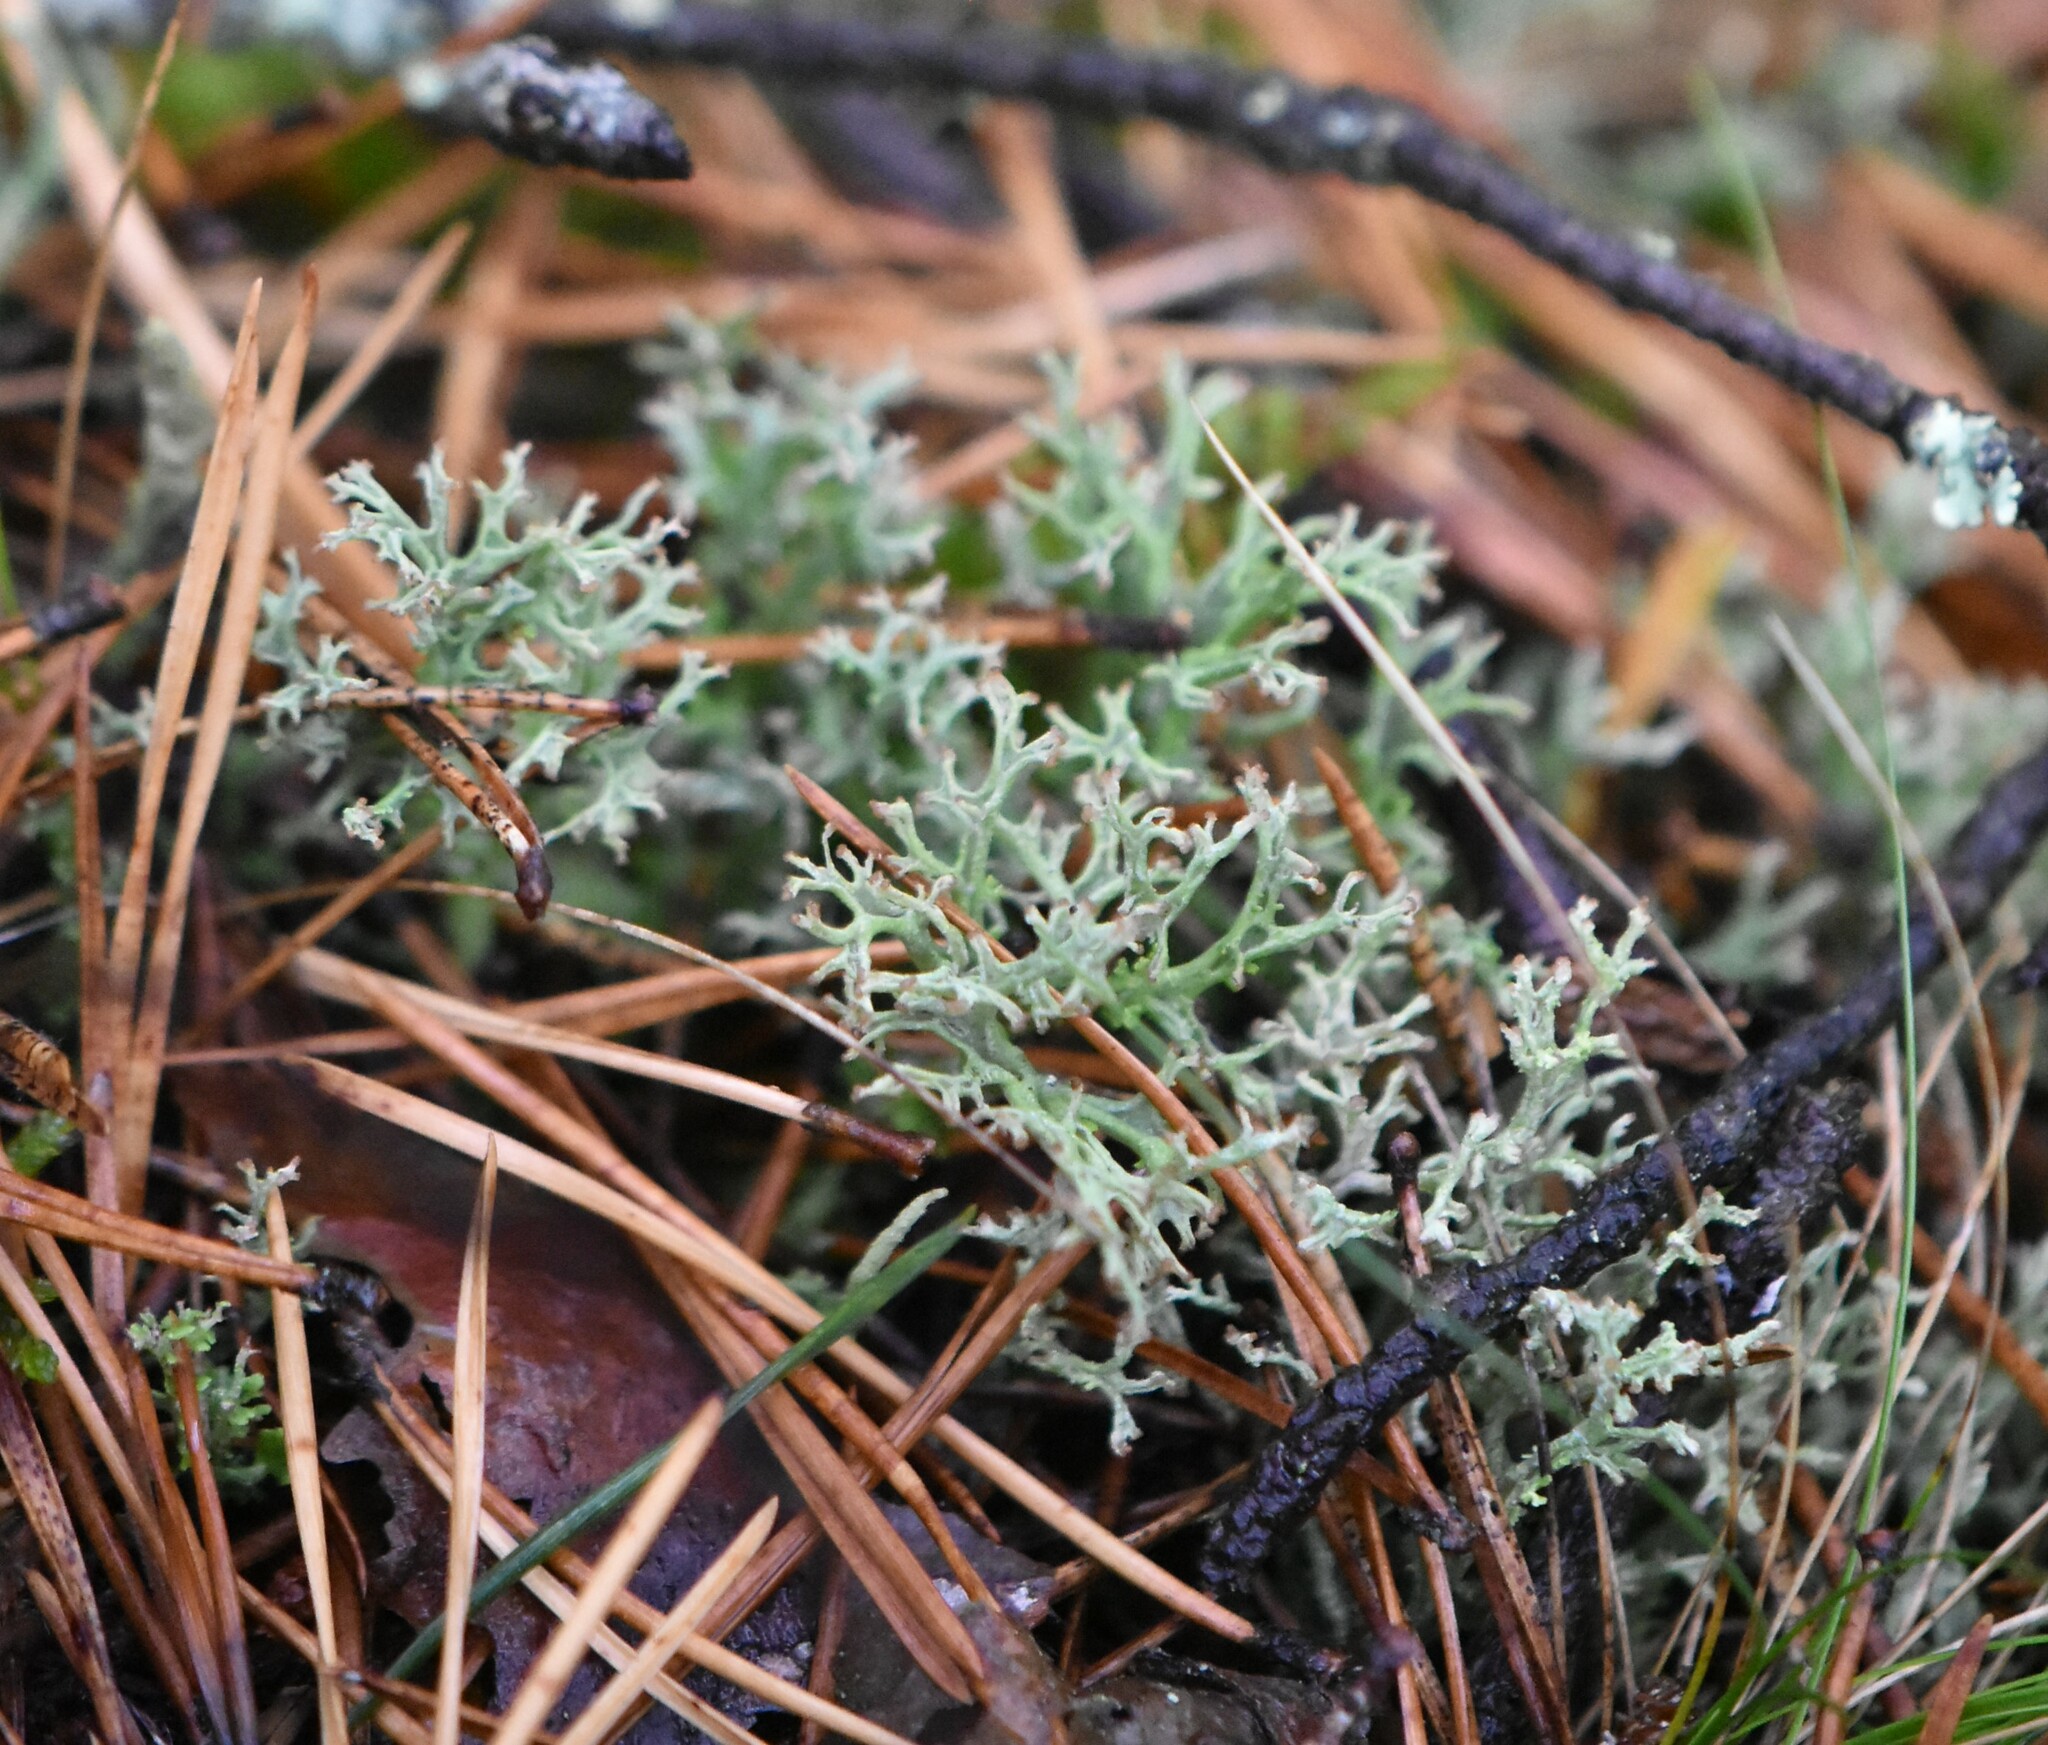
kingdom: Fungi
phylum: Ascomycota
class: Lecanoromycetes
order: Lecanorales
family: Cladoniaceae
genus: Cladonia
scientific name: Cladonia furcata
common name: Many-forked cladonia
